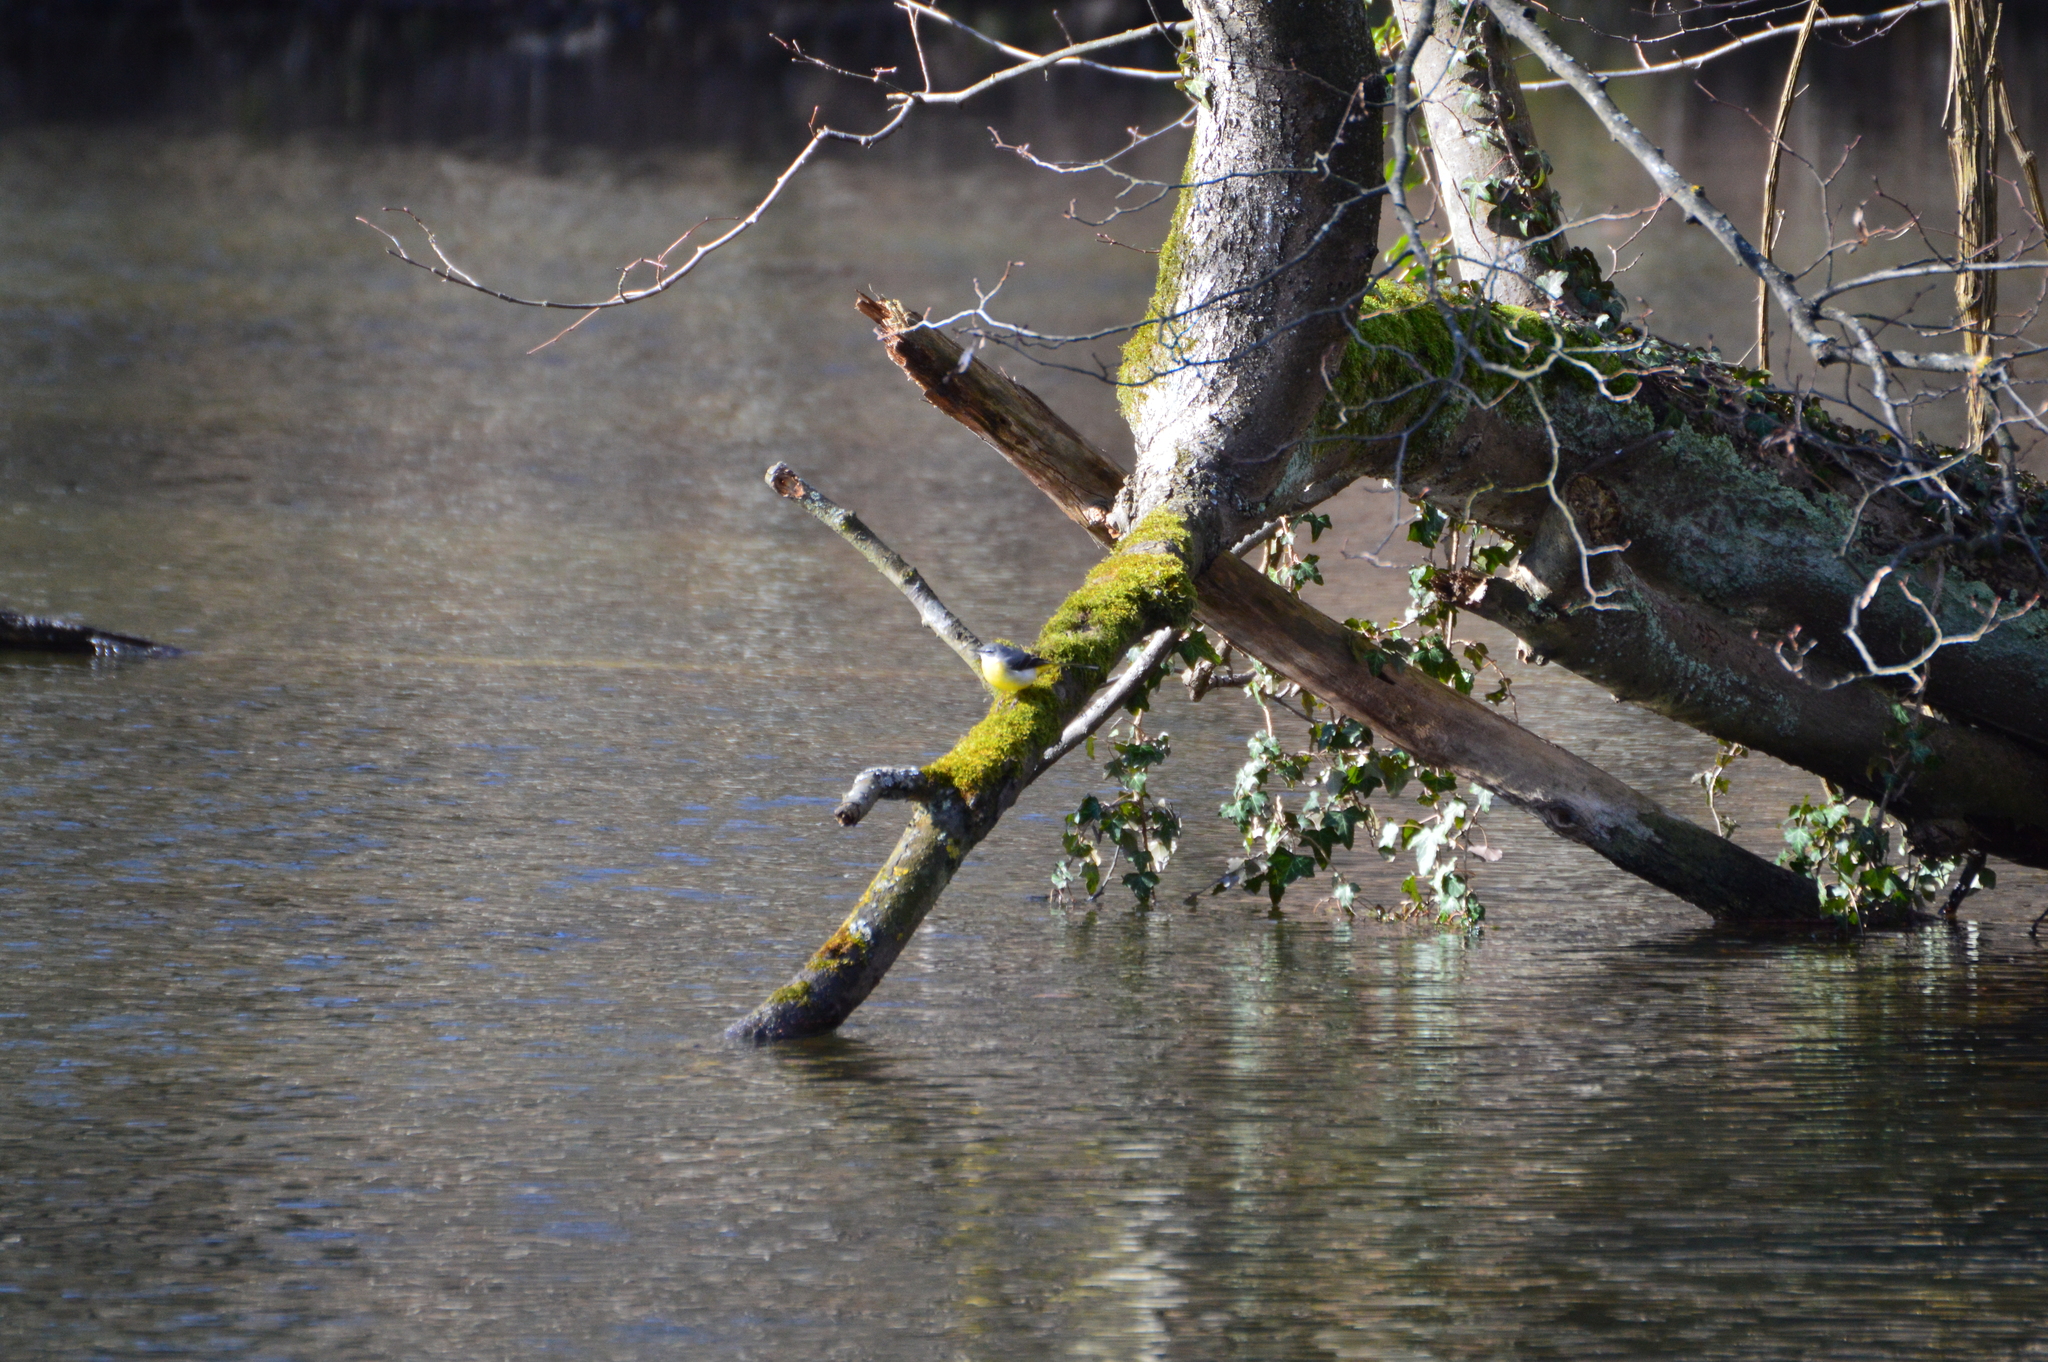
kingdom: Animalia
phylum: Chordata
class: Aves
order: Passeriformes
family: Motacillidae
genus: Motacilla
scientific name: Motacilla cinerea
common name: Grey wagtail
